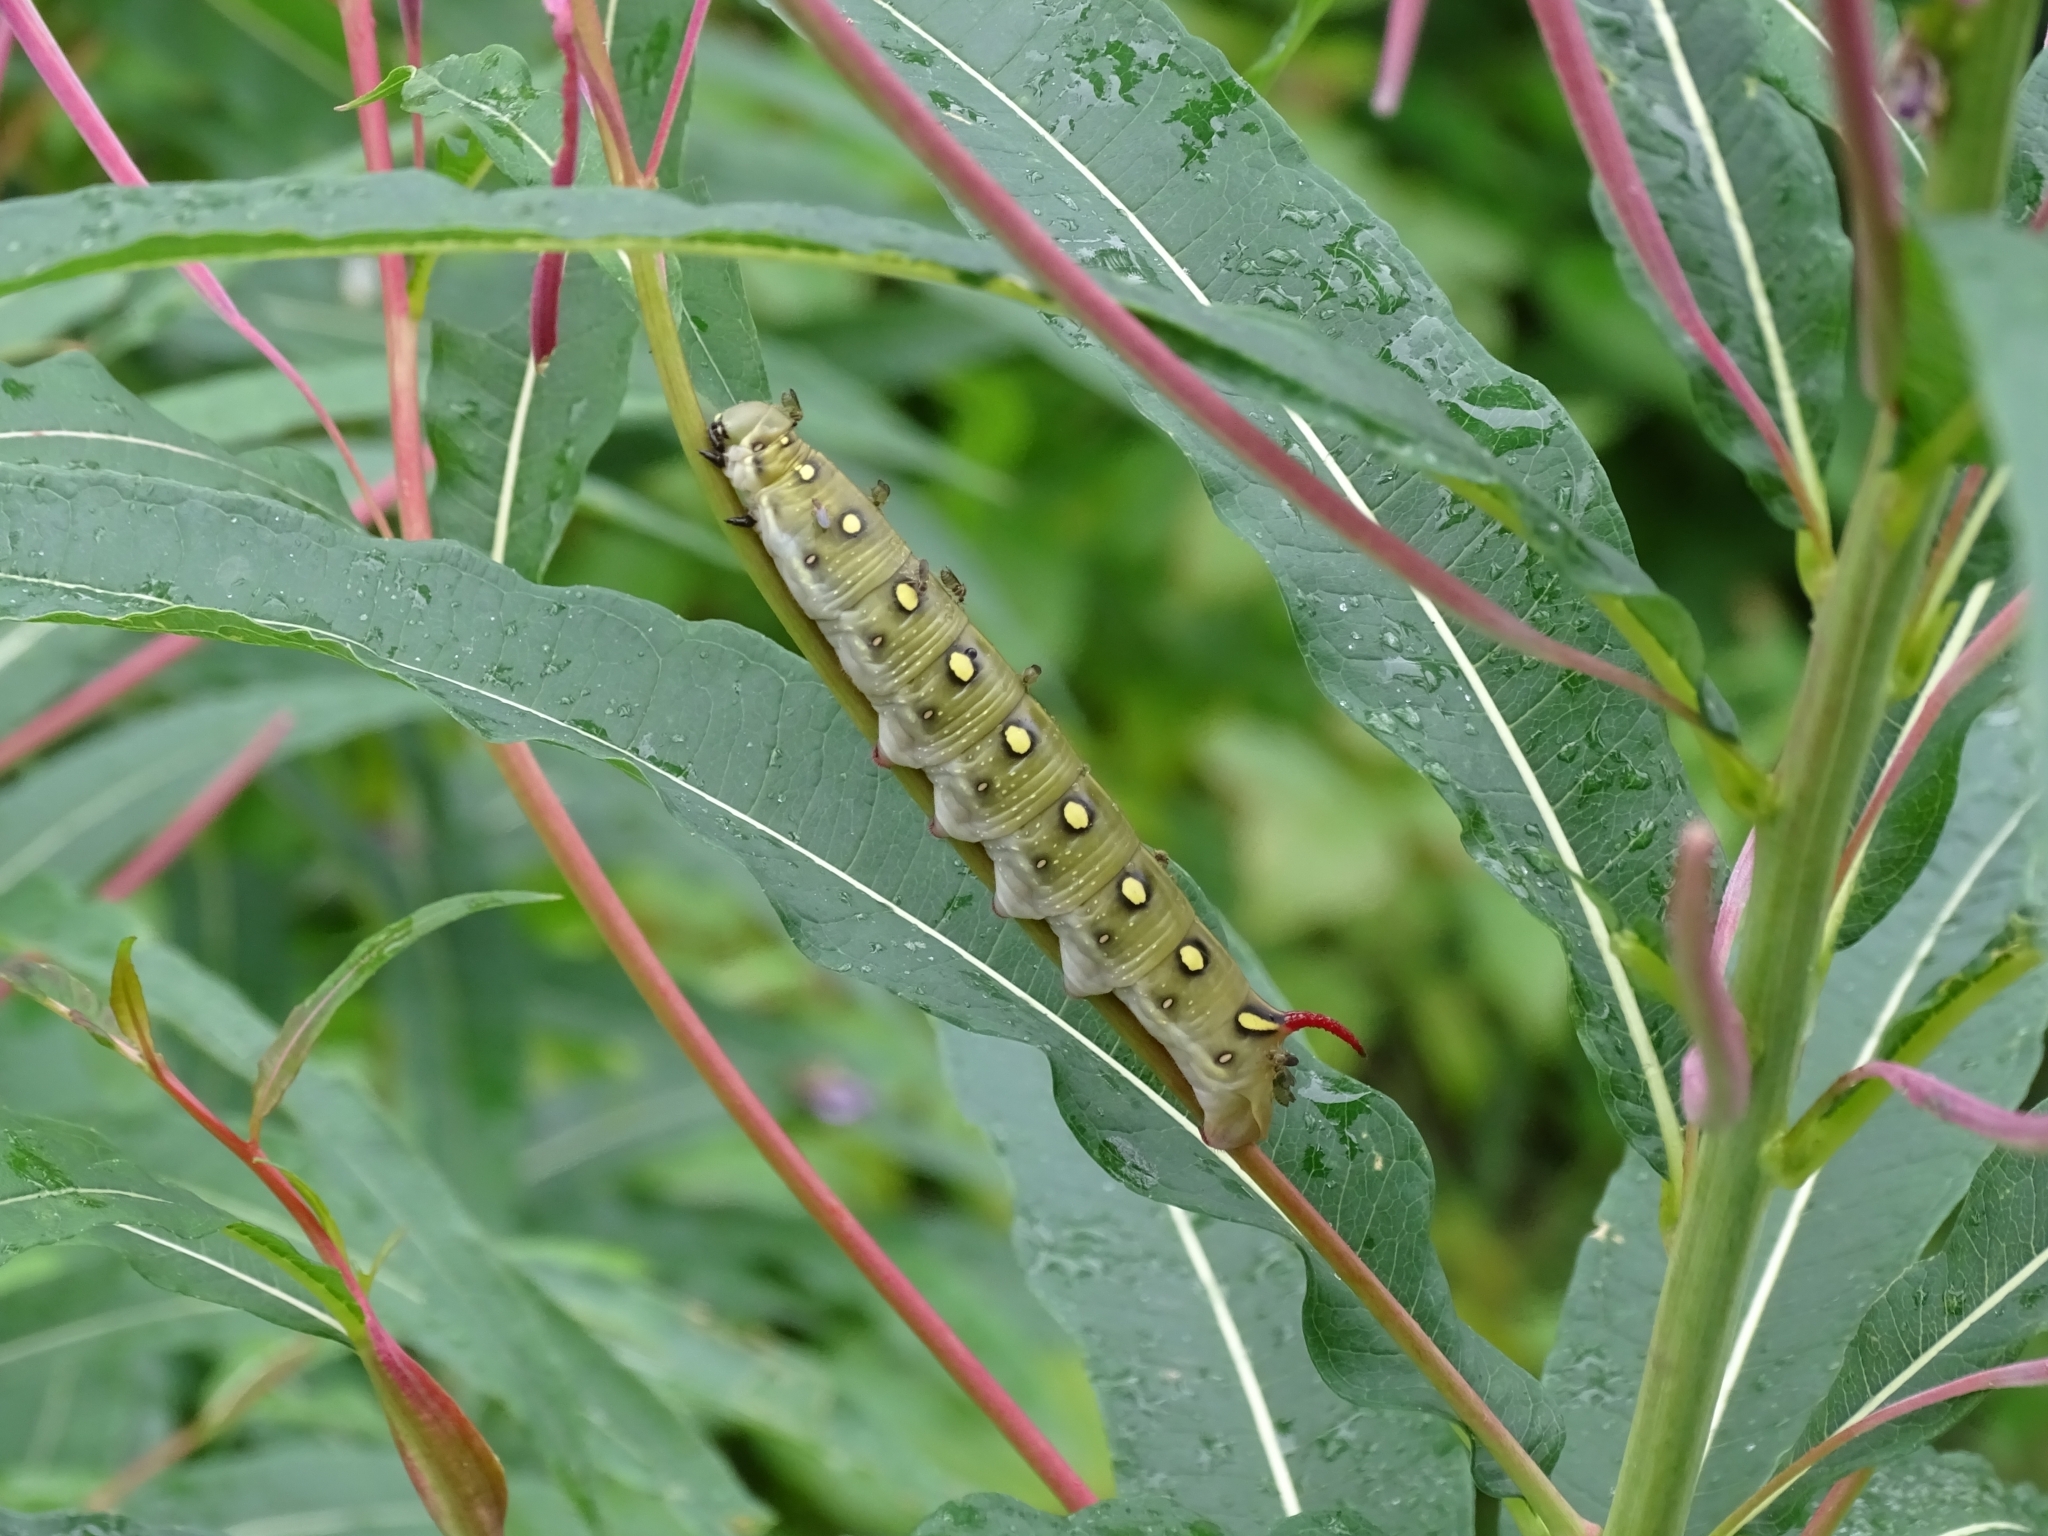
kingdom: Animalia
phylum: Arthropoda
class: Insecta
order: Lepidoptera
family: Sphingidae
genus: Hyles
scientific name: Hyles gallii
